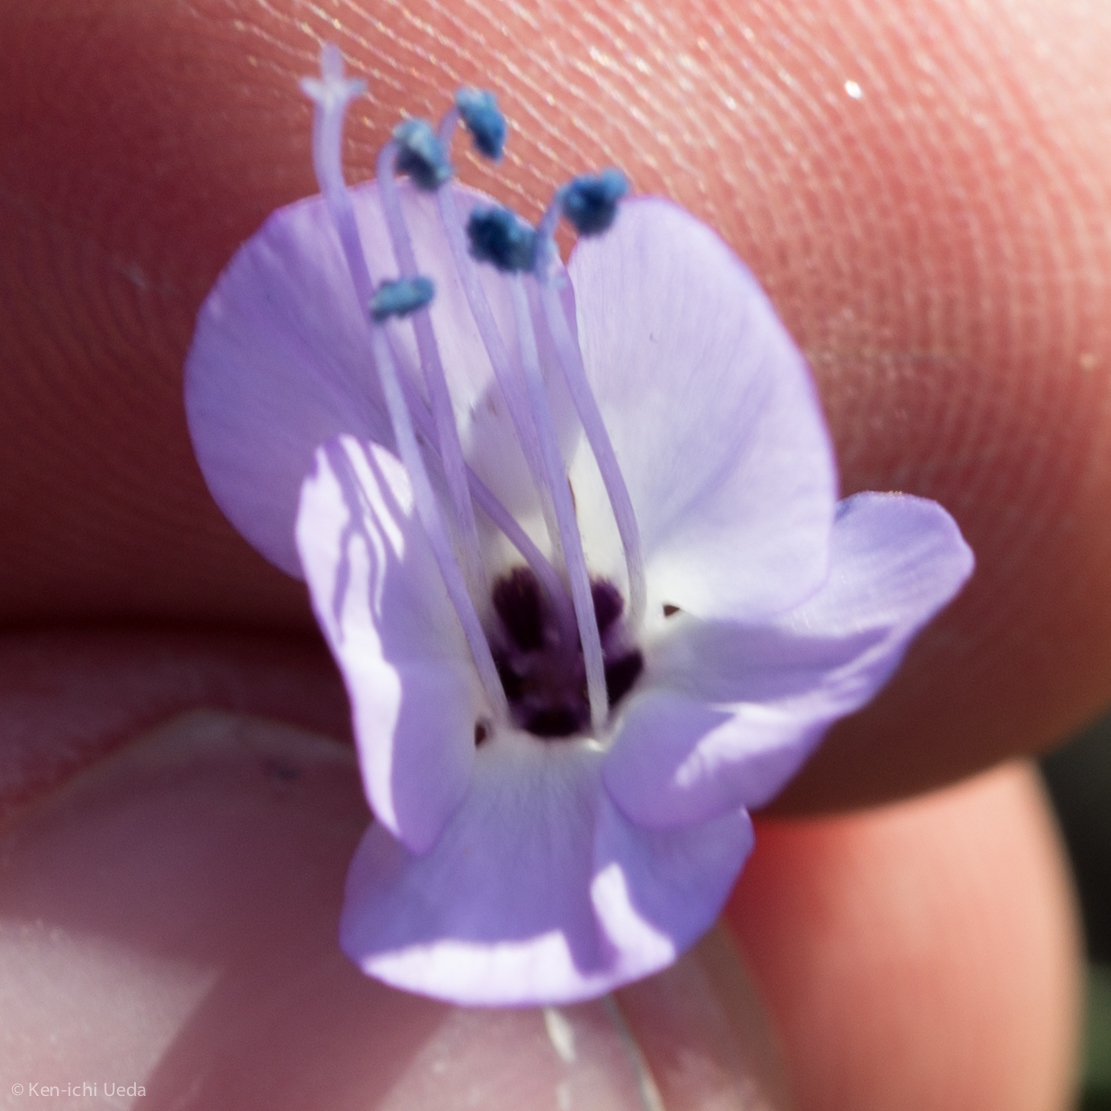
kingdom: Plantae
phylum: Tracheophyta
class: Magnoliopsida
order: Ericales
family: Polemoniaceae
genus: Gilia
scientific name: Gilia aliquanta
